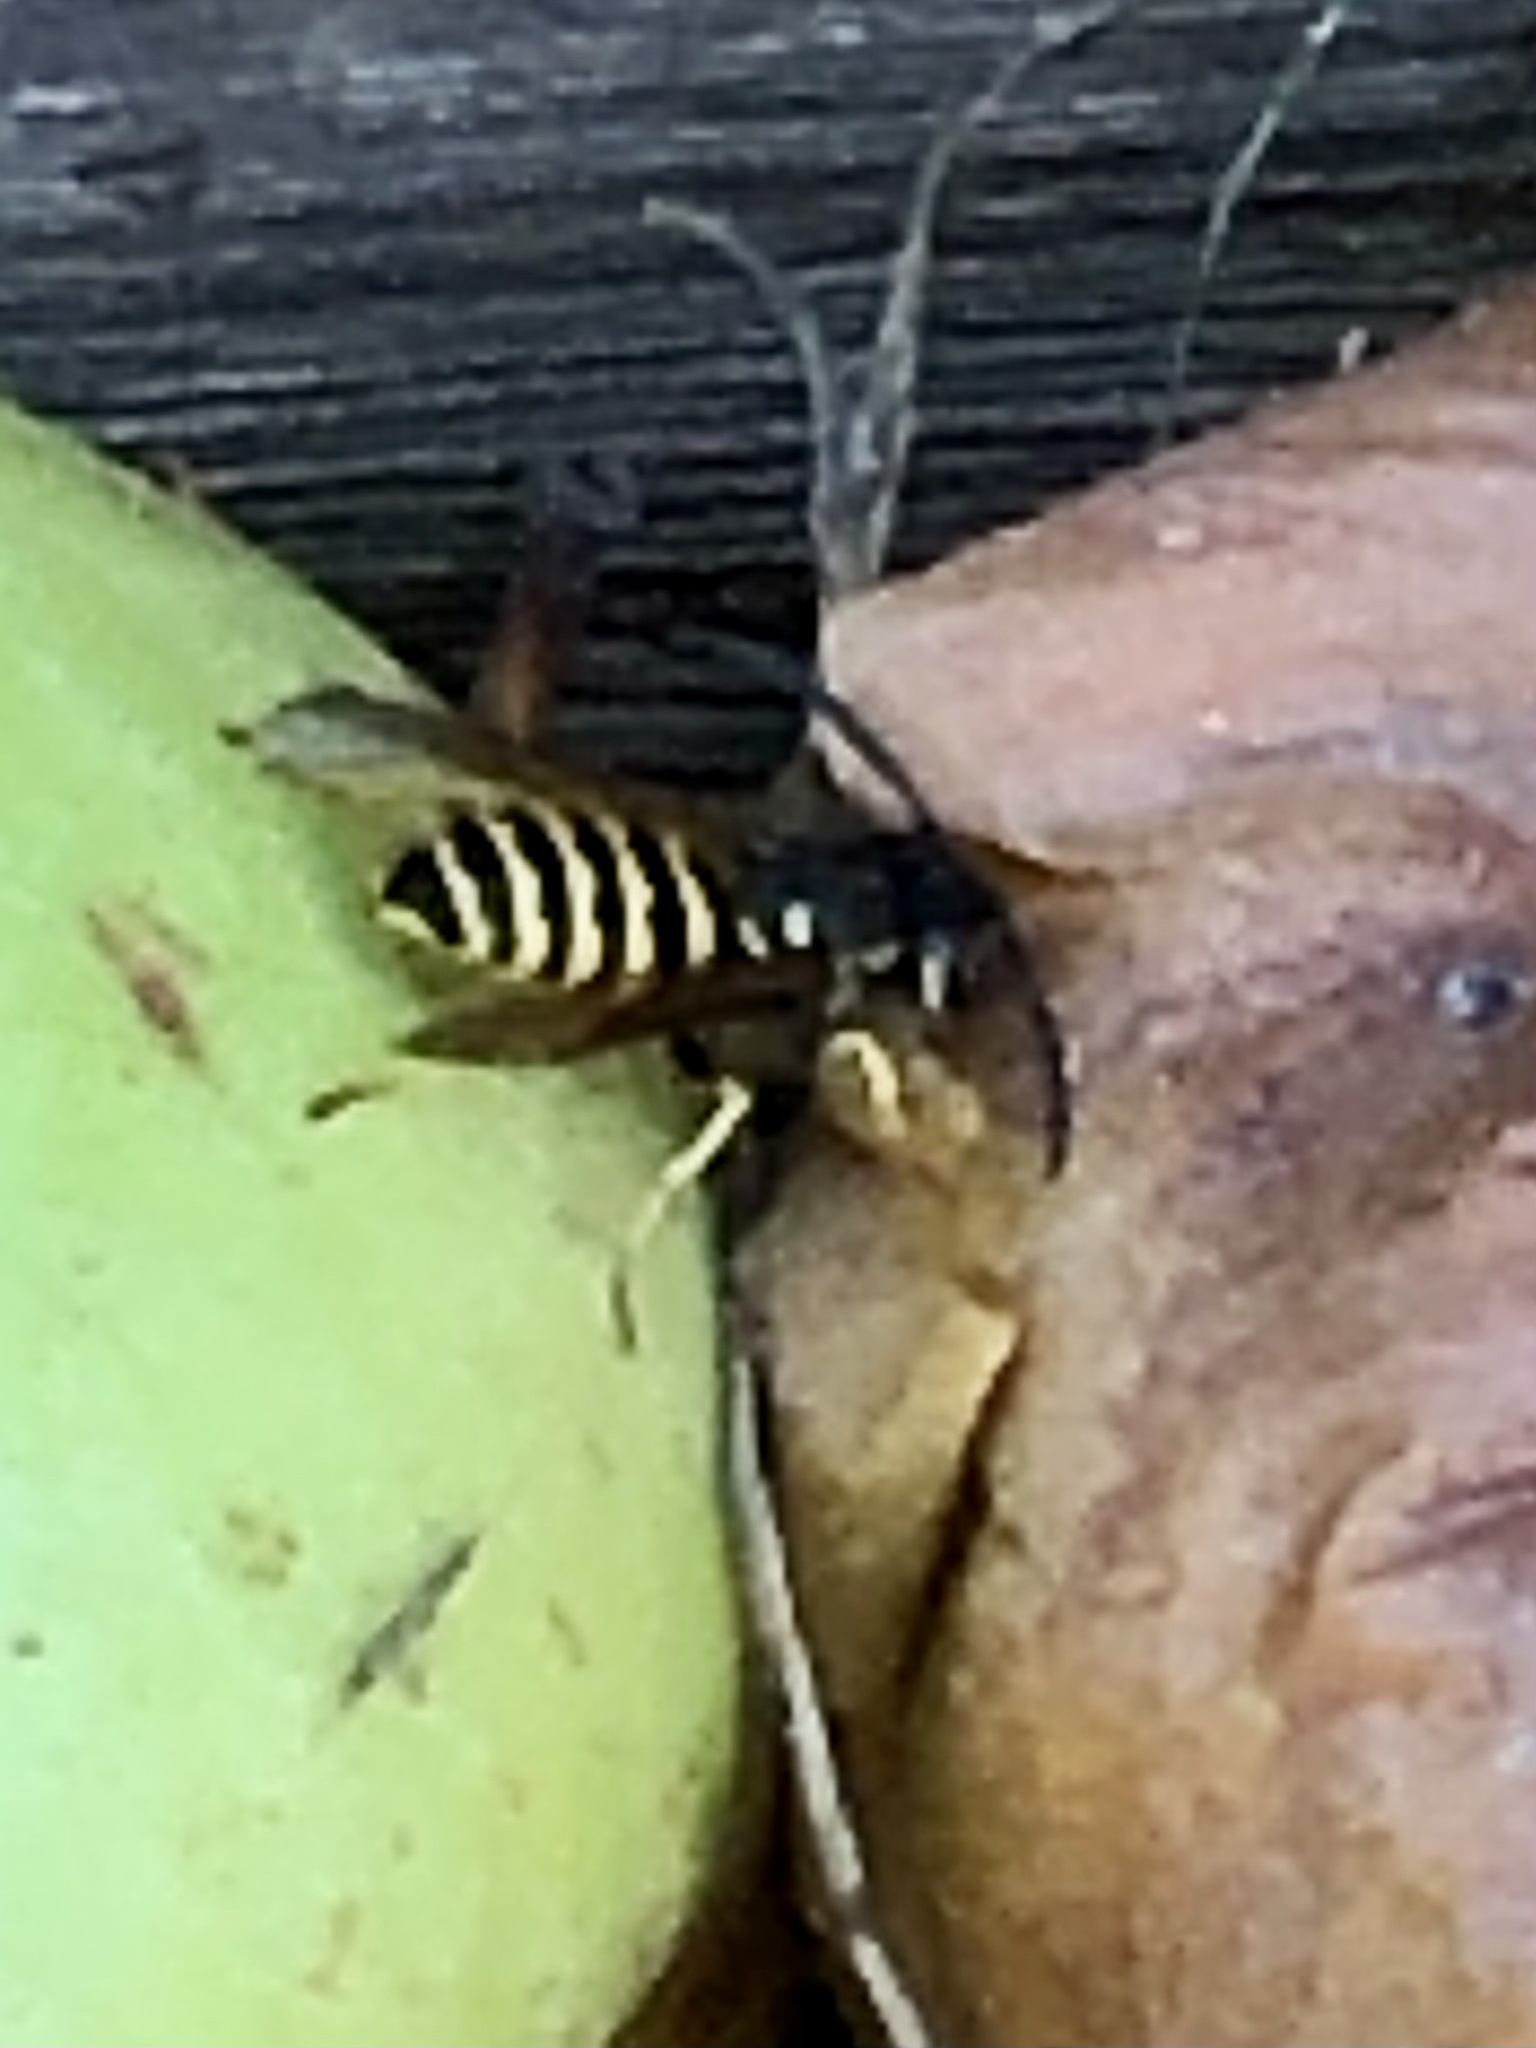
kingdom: Animalia
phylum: Arthropoda
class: Insecta
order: Hymenoptera
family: Vespidae
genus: Vespula
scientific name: Vespula alascensis
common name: Alaska yellowjacket
